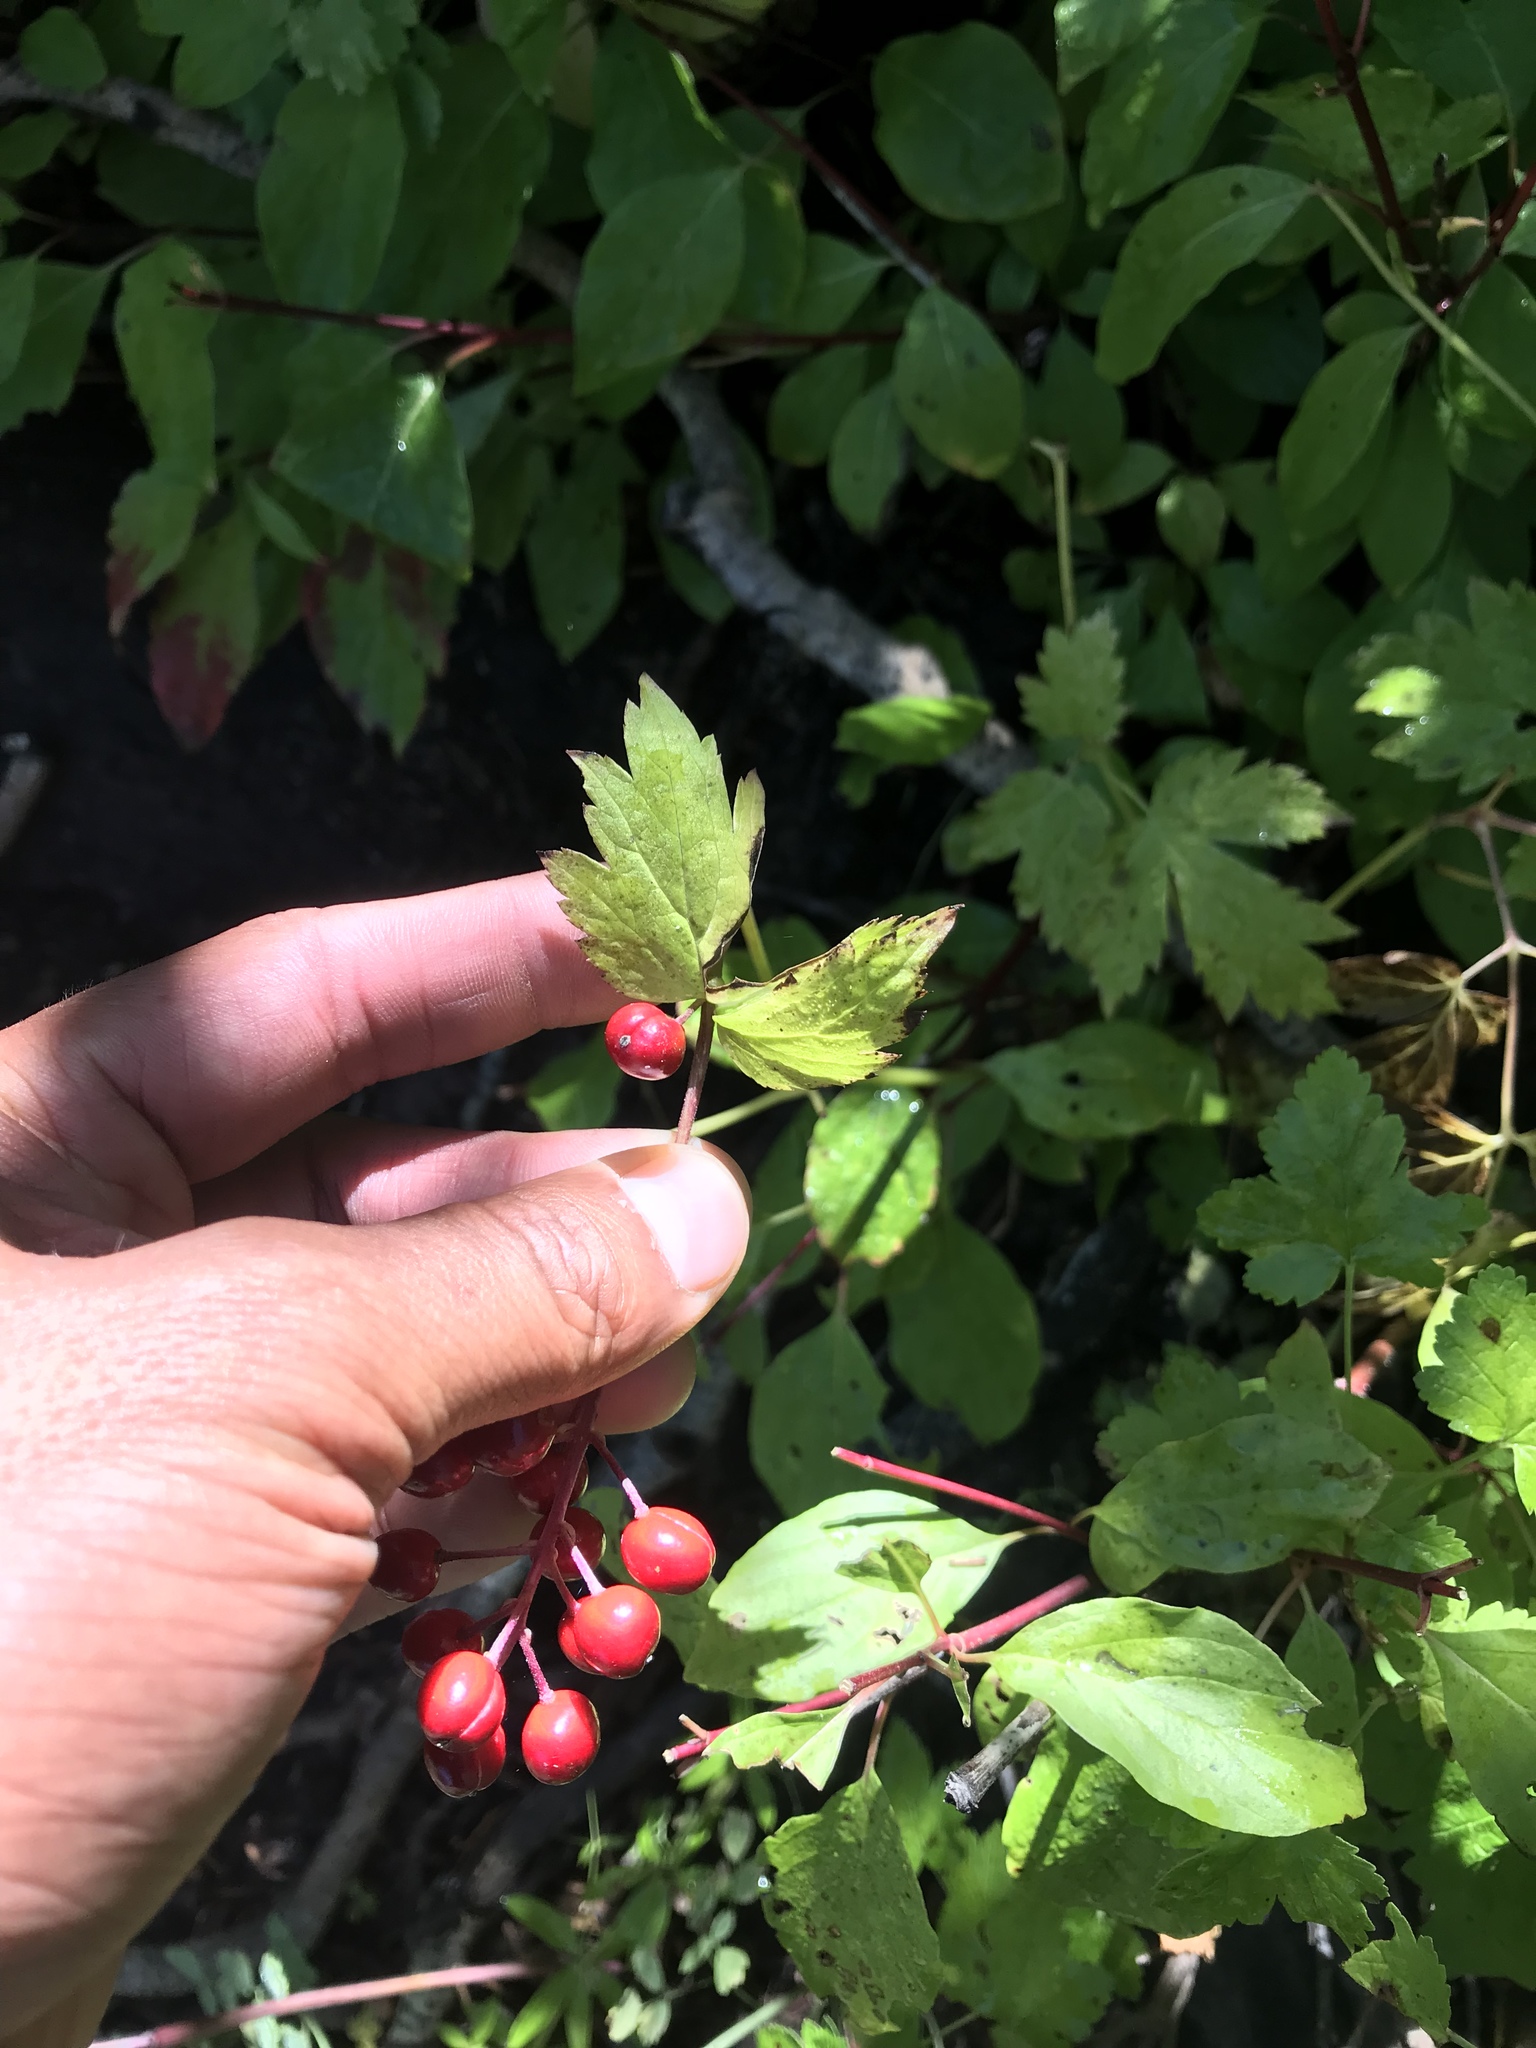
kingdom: Plantae
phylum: Tracheophyta
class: Magnoliopsida
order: Ranunculales
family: Ranunculaceae
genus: Actaea
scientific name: Actaea rubra
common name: Red baneberry
